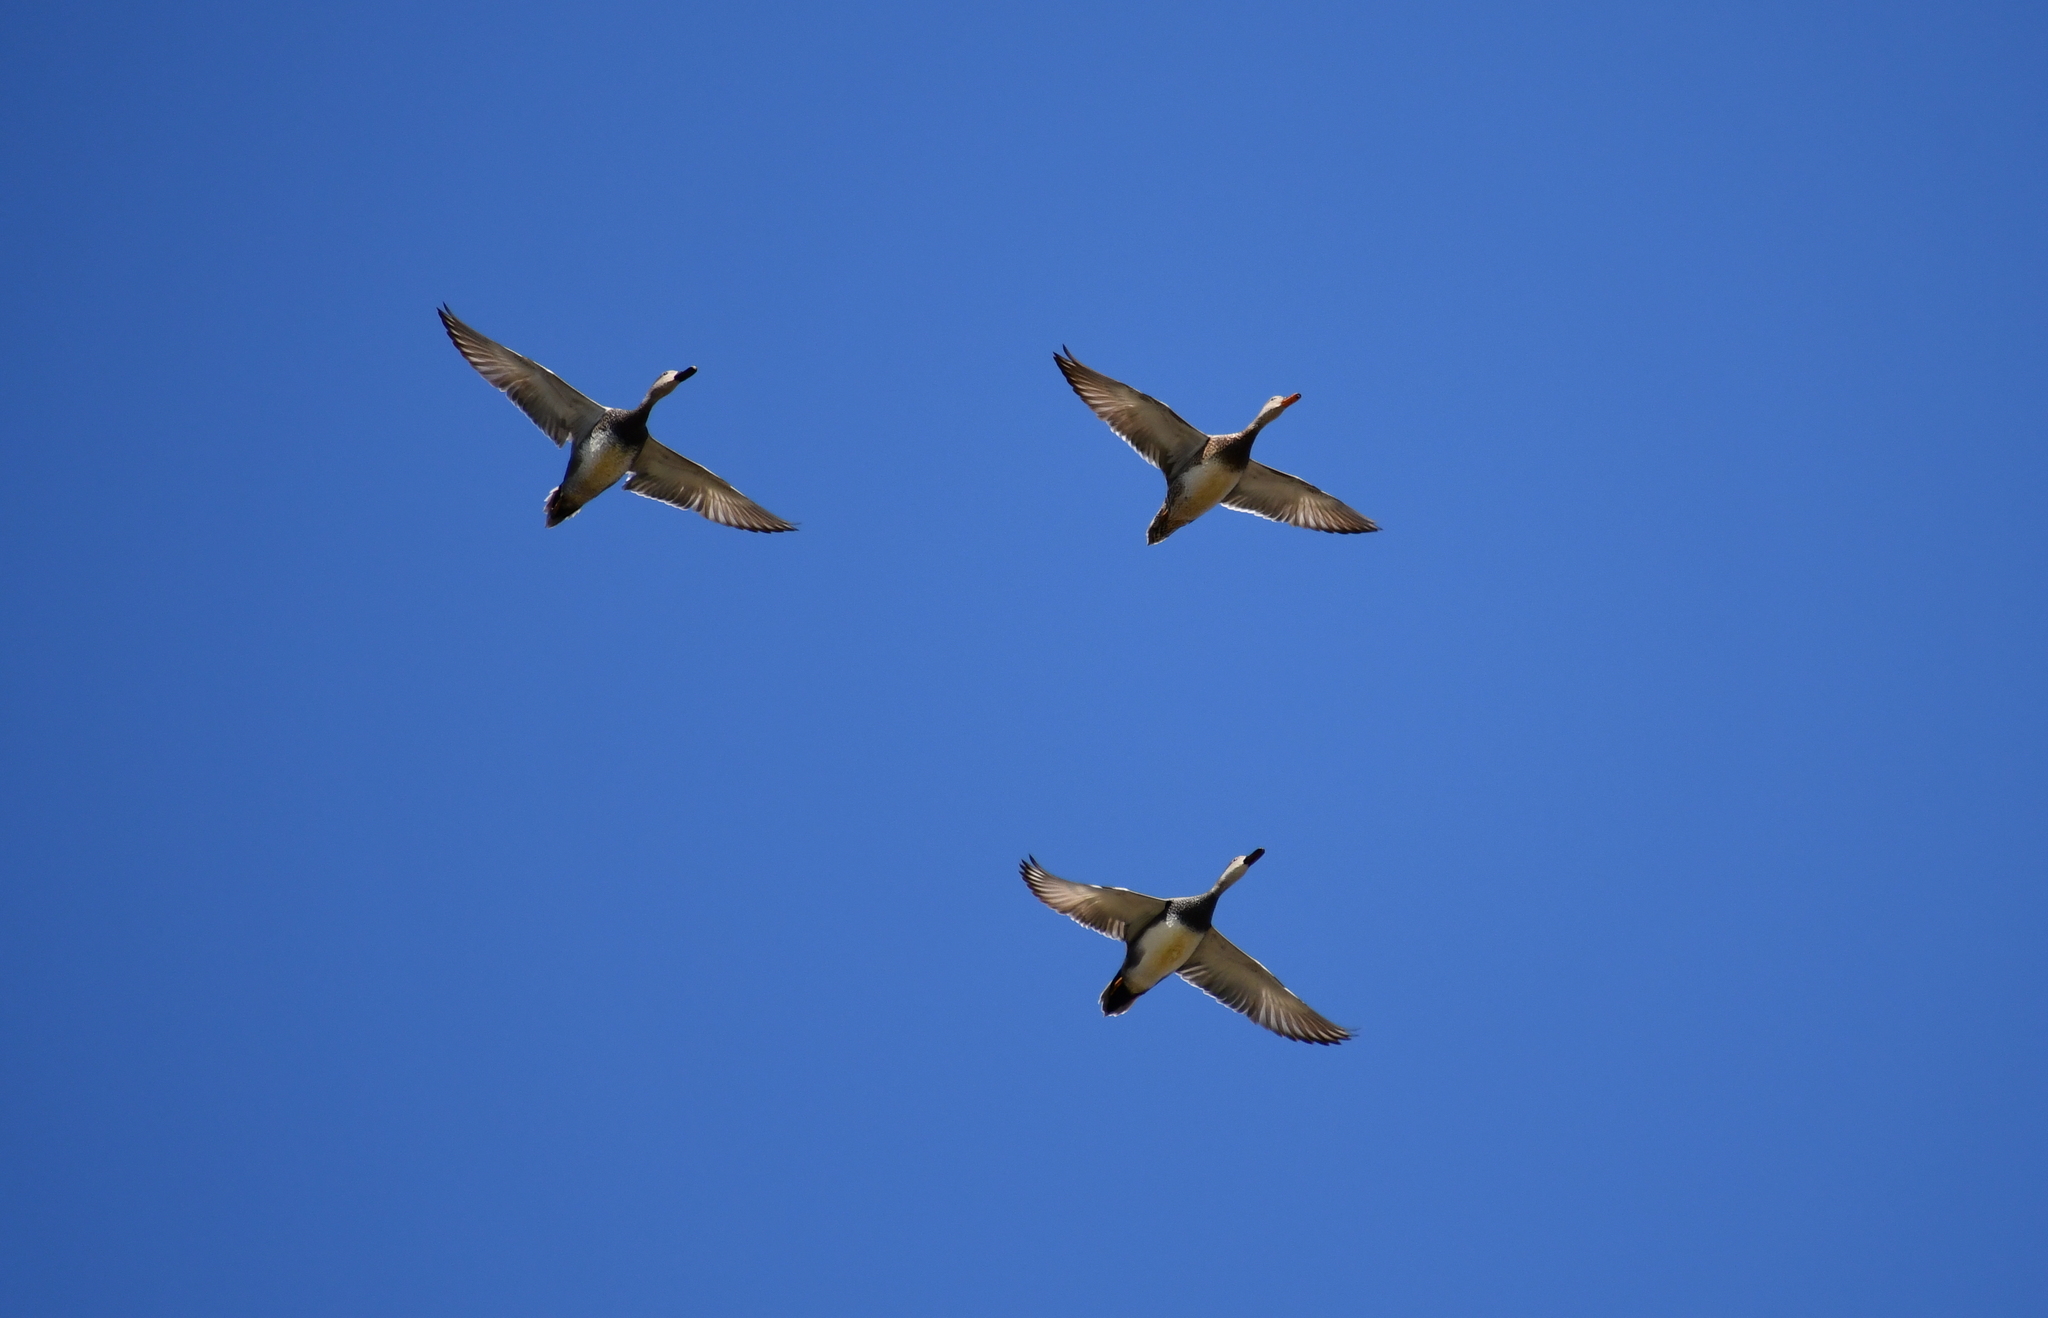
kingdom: Animalia
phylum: Chordata
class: Aves
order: Anseriformes
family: Anatidae
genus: Mareca
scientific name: Mareca strepera
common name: Gadwall
